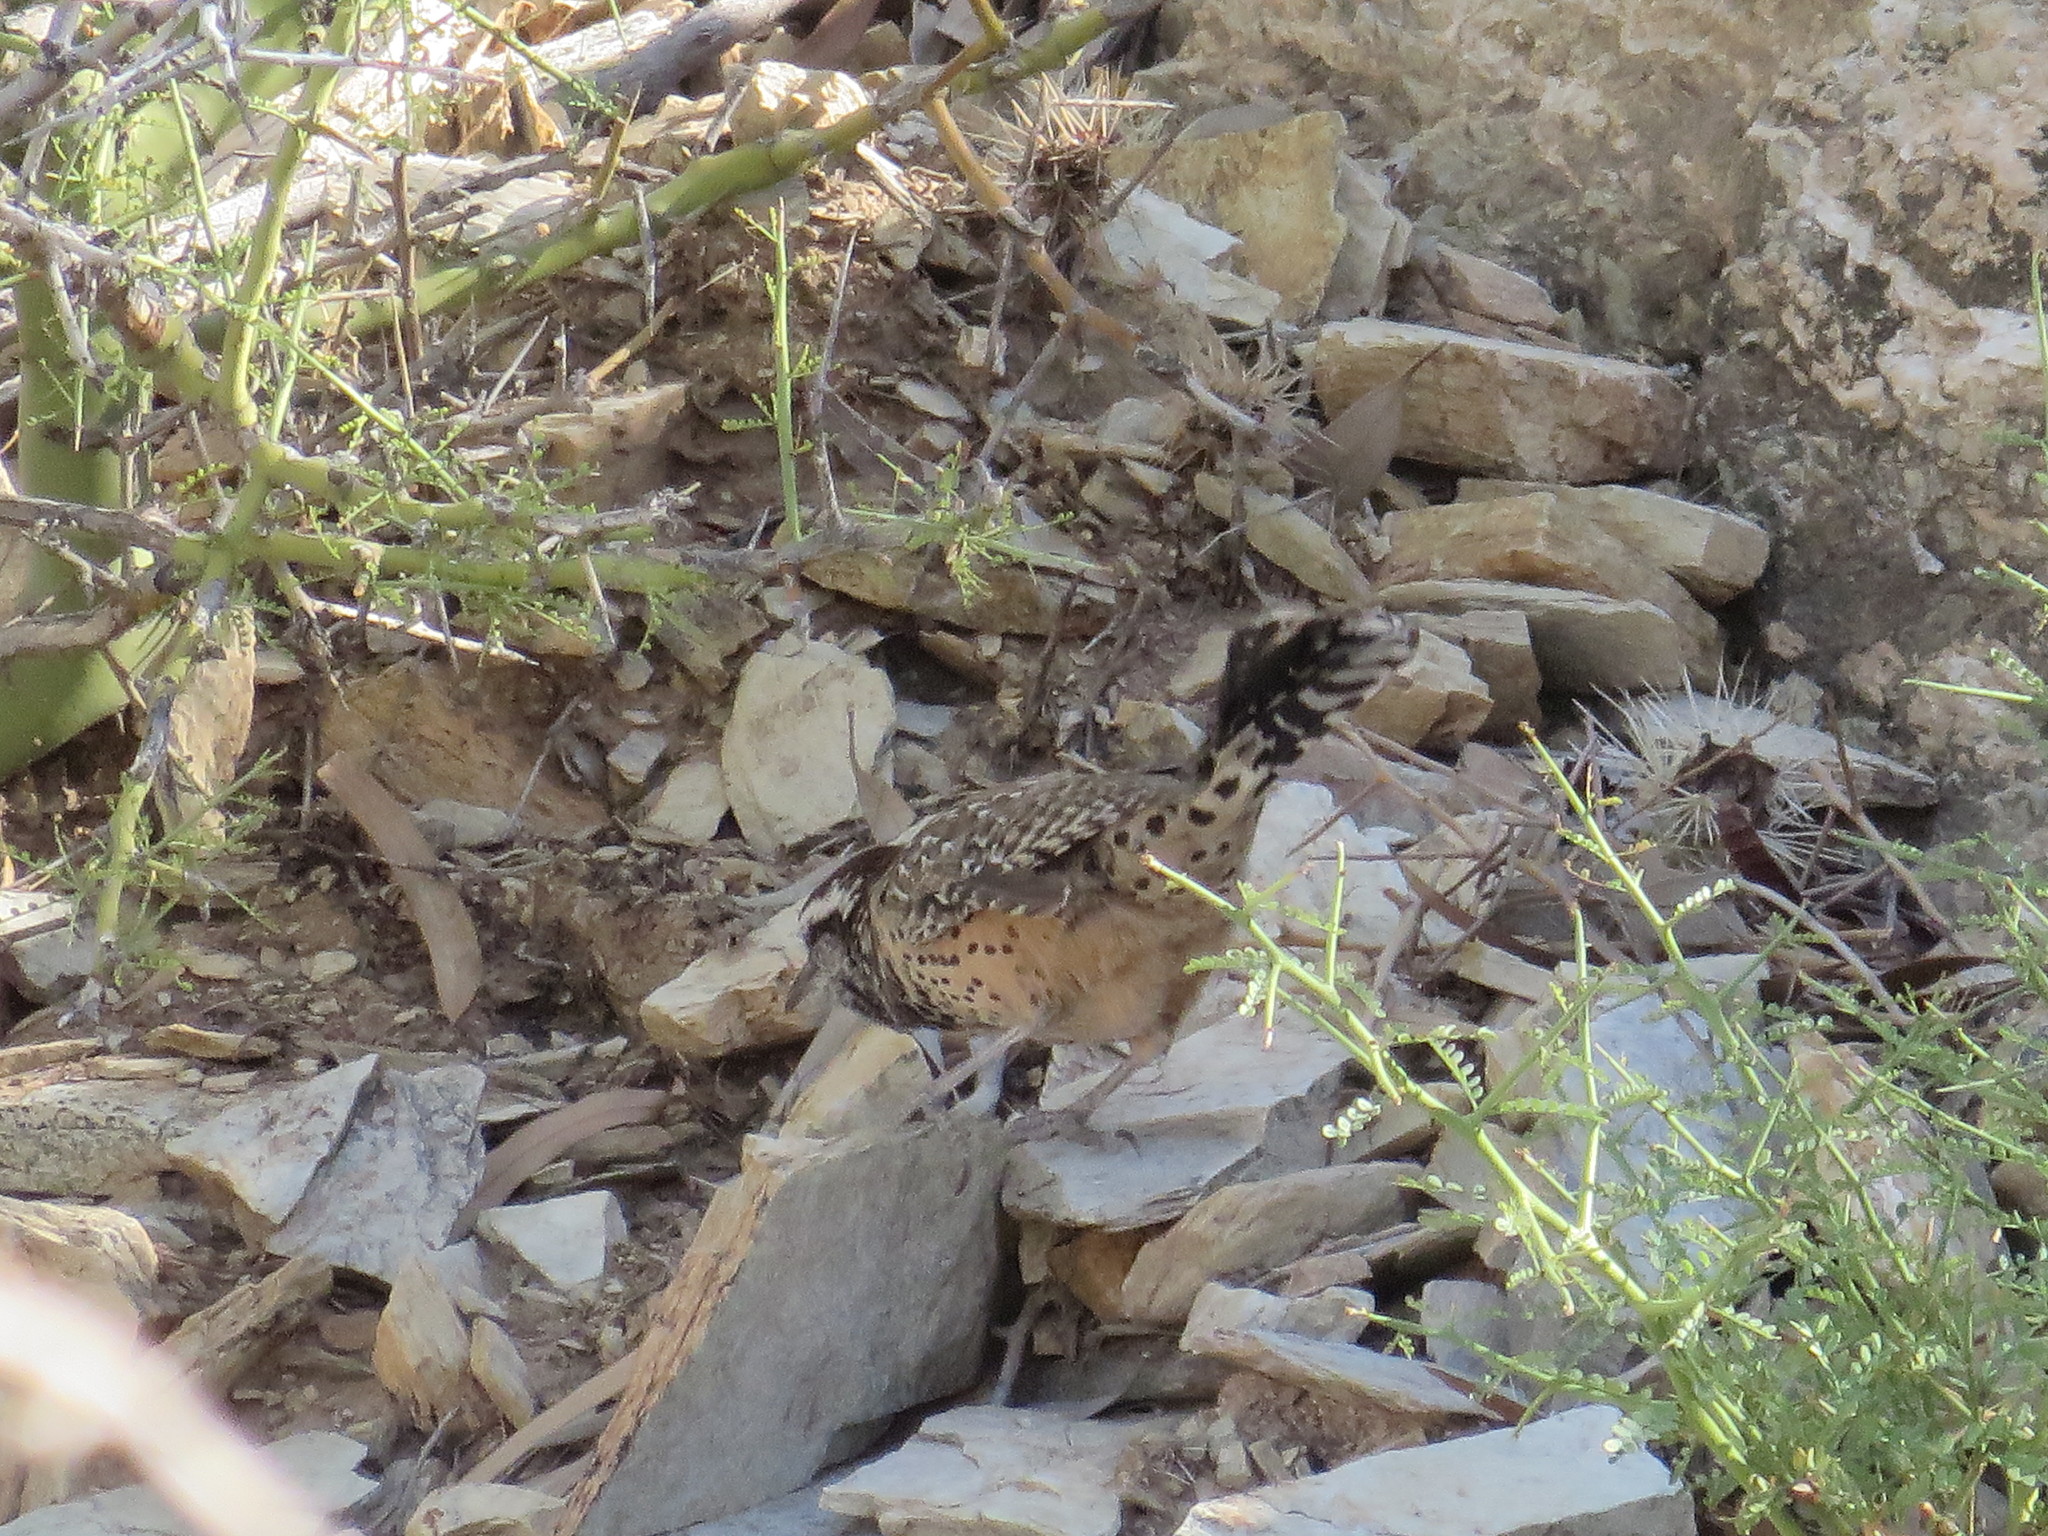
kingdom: Animalia
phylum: Chordata
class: Aves
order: Passeriformes
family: Troglodytidae
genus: Campylorhynchus
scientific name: Campylorhynchus brunneicapillus
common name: Cactus wren
